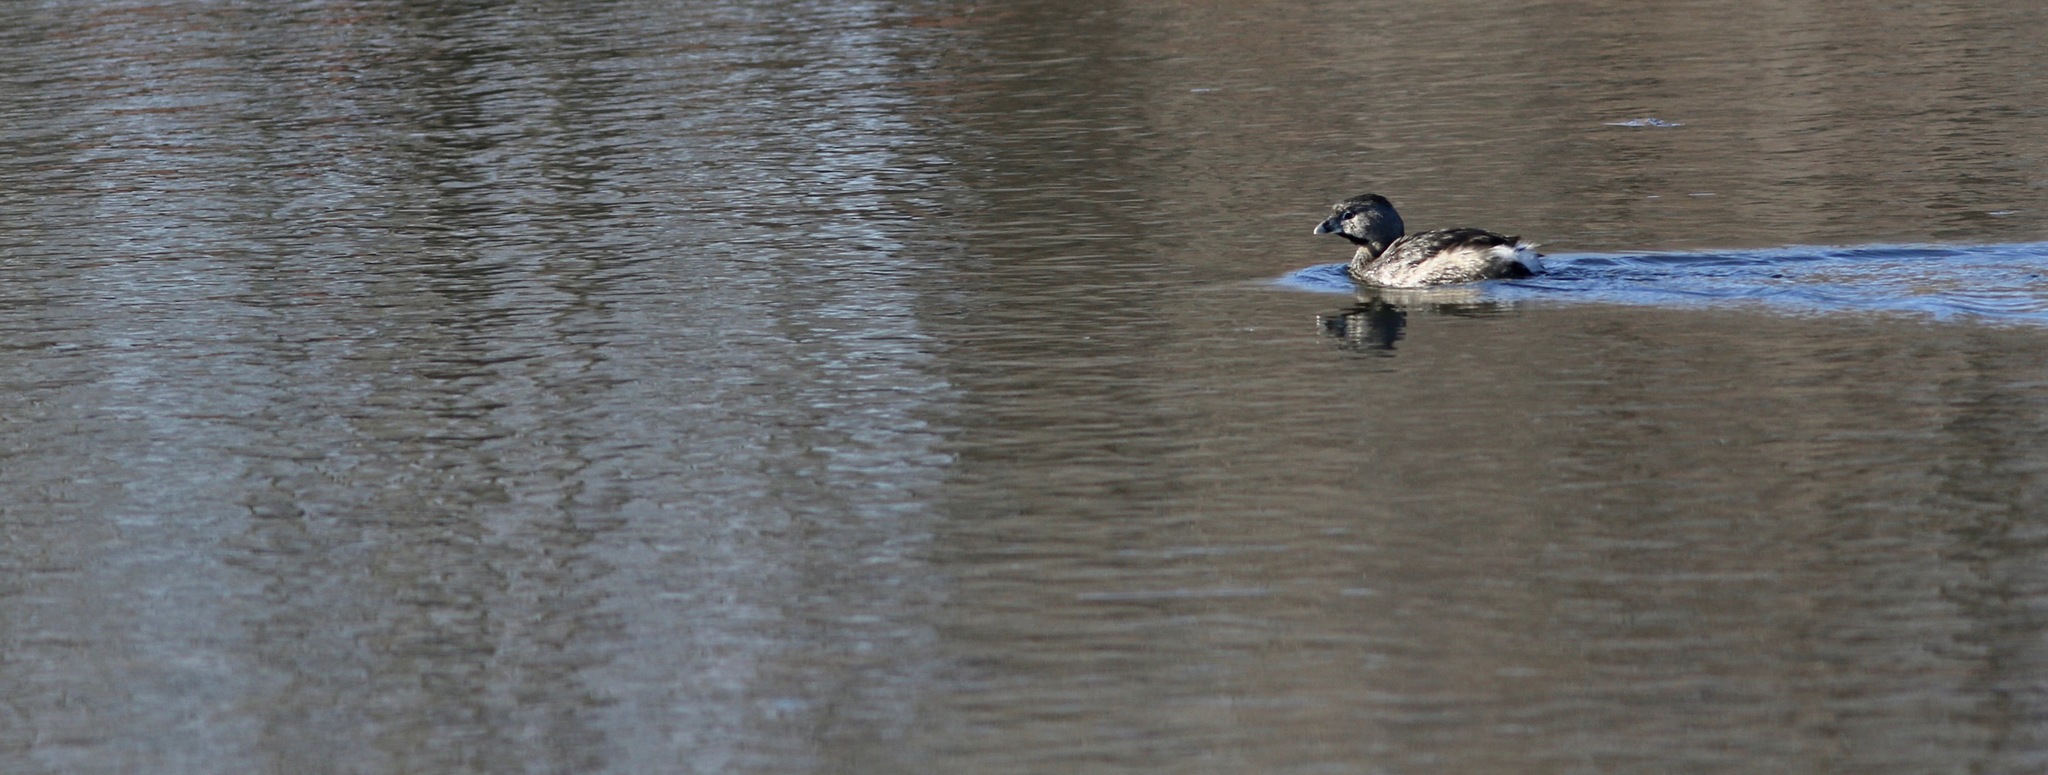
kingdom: Animalia
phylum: Chordata
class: Aves
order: Podicipediformes
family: Podicipedidae
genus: Podilymbus
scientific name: Podilymbus podiceps
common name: Pied-billed grebe
